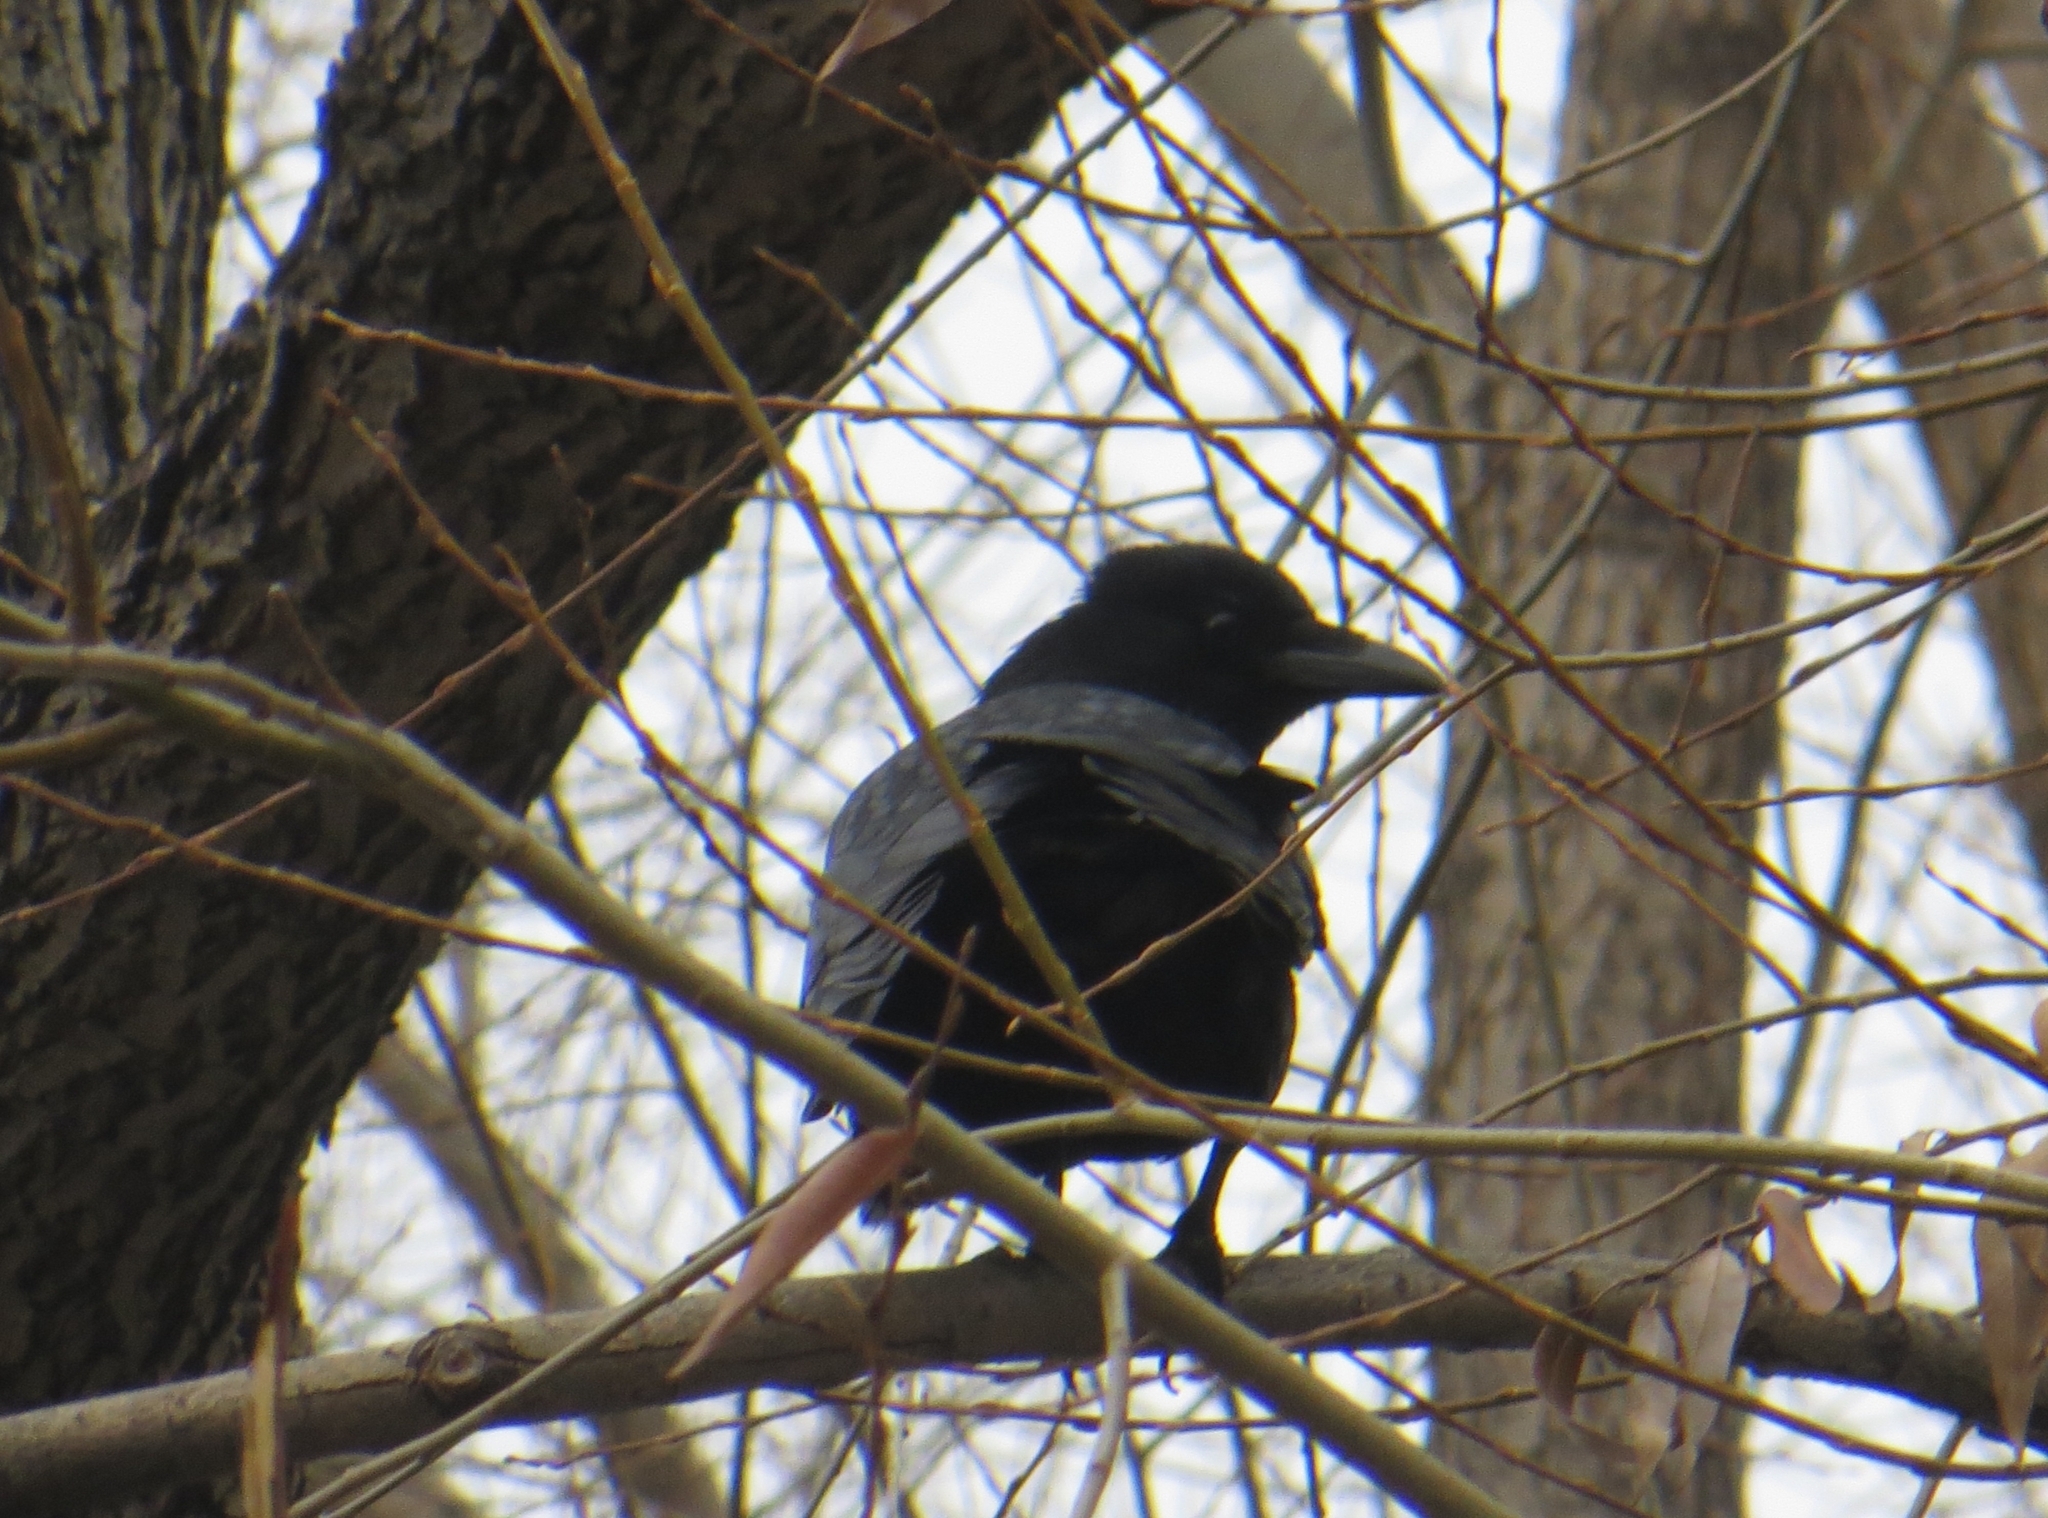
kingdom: Animalia
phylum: Chordata
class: Aves
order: Passeriformes
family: Corvidae
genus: Corvus
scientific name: Corvus corone
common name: Carrion crow
